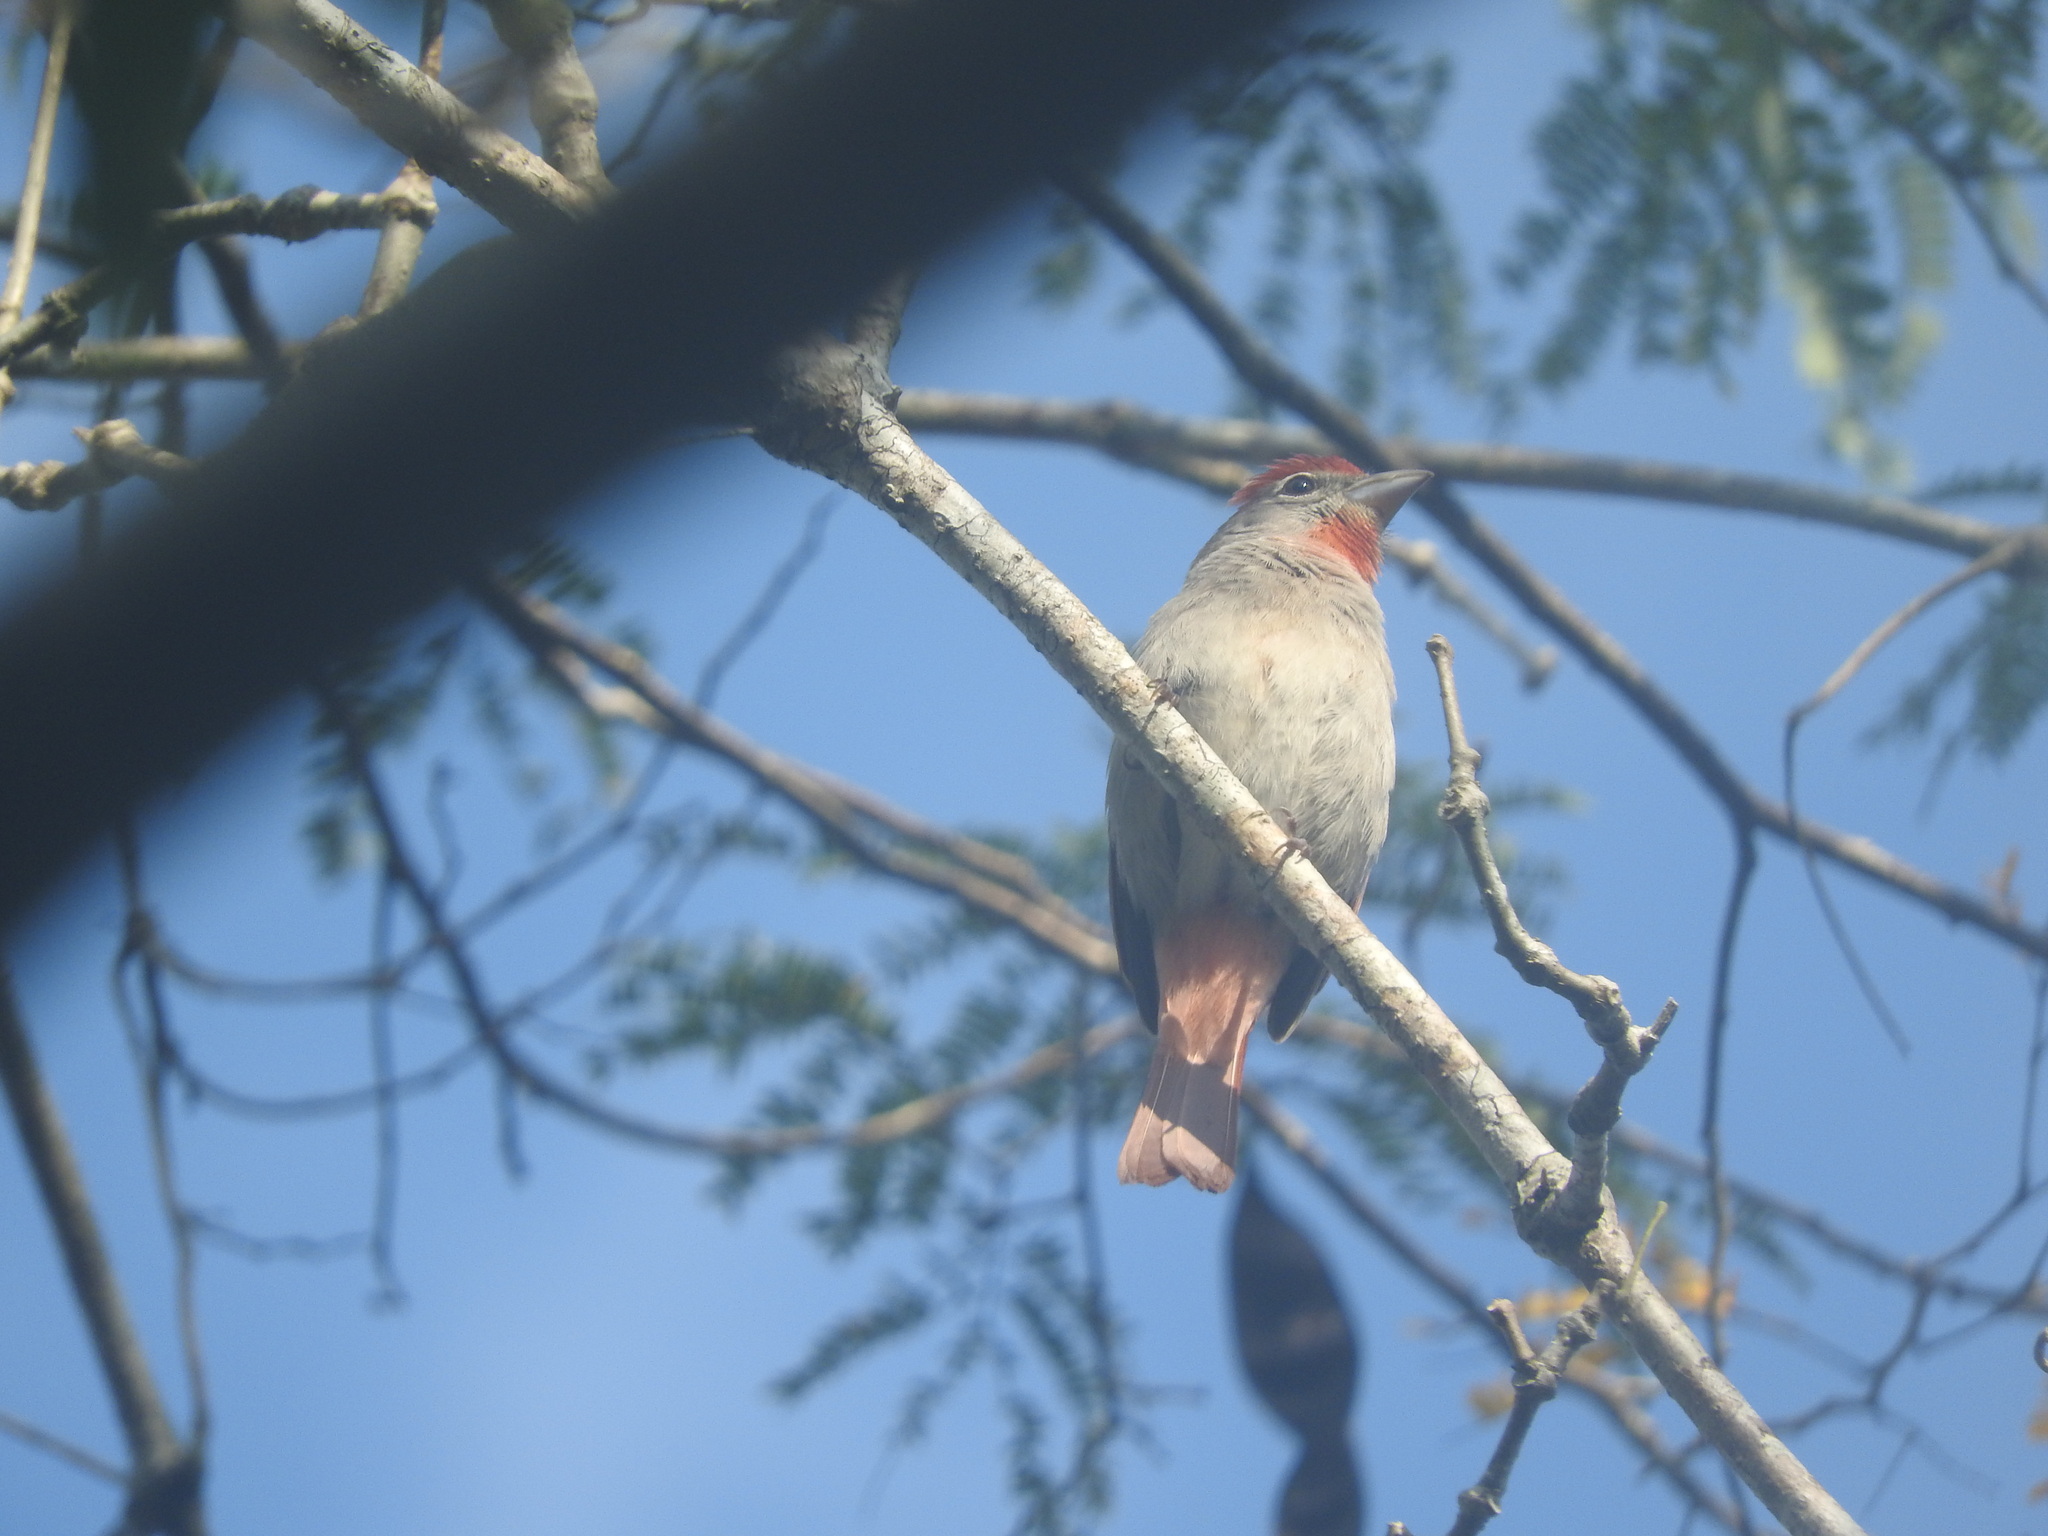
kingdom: Animalia
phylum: Chordata
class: Aves
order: Passeriformes
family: Cardinalidae
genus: Piranga
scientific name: Piranga roseogularis
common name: Rose-throated tanager
